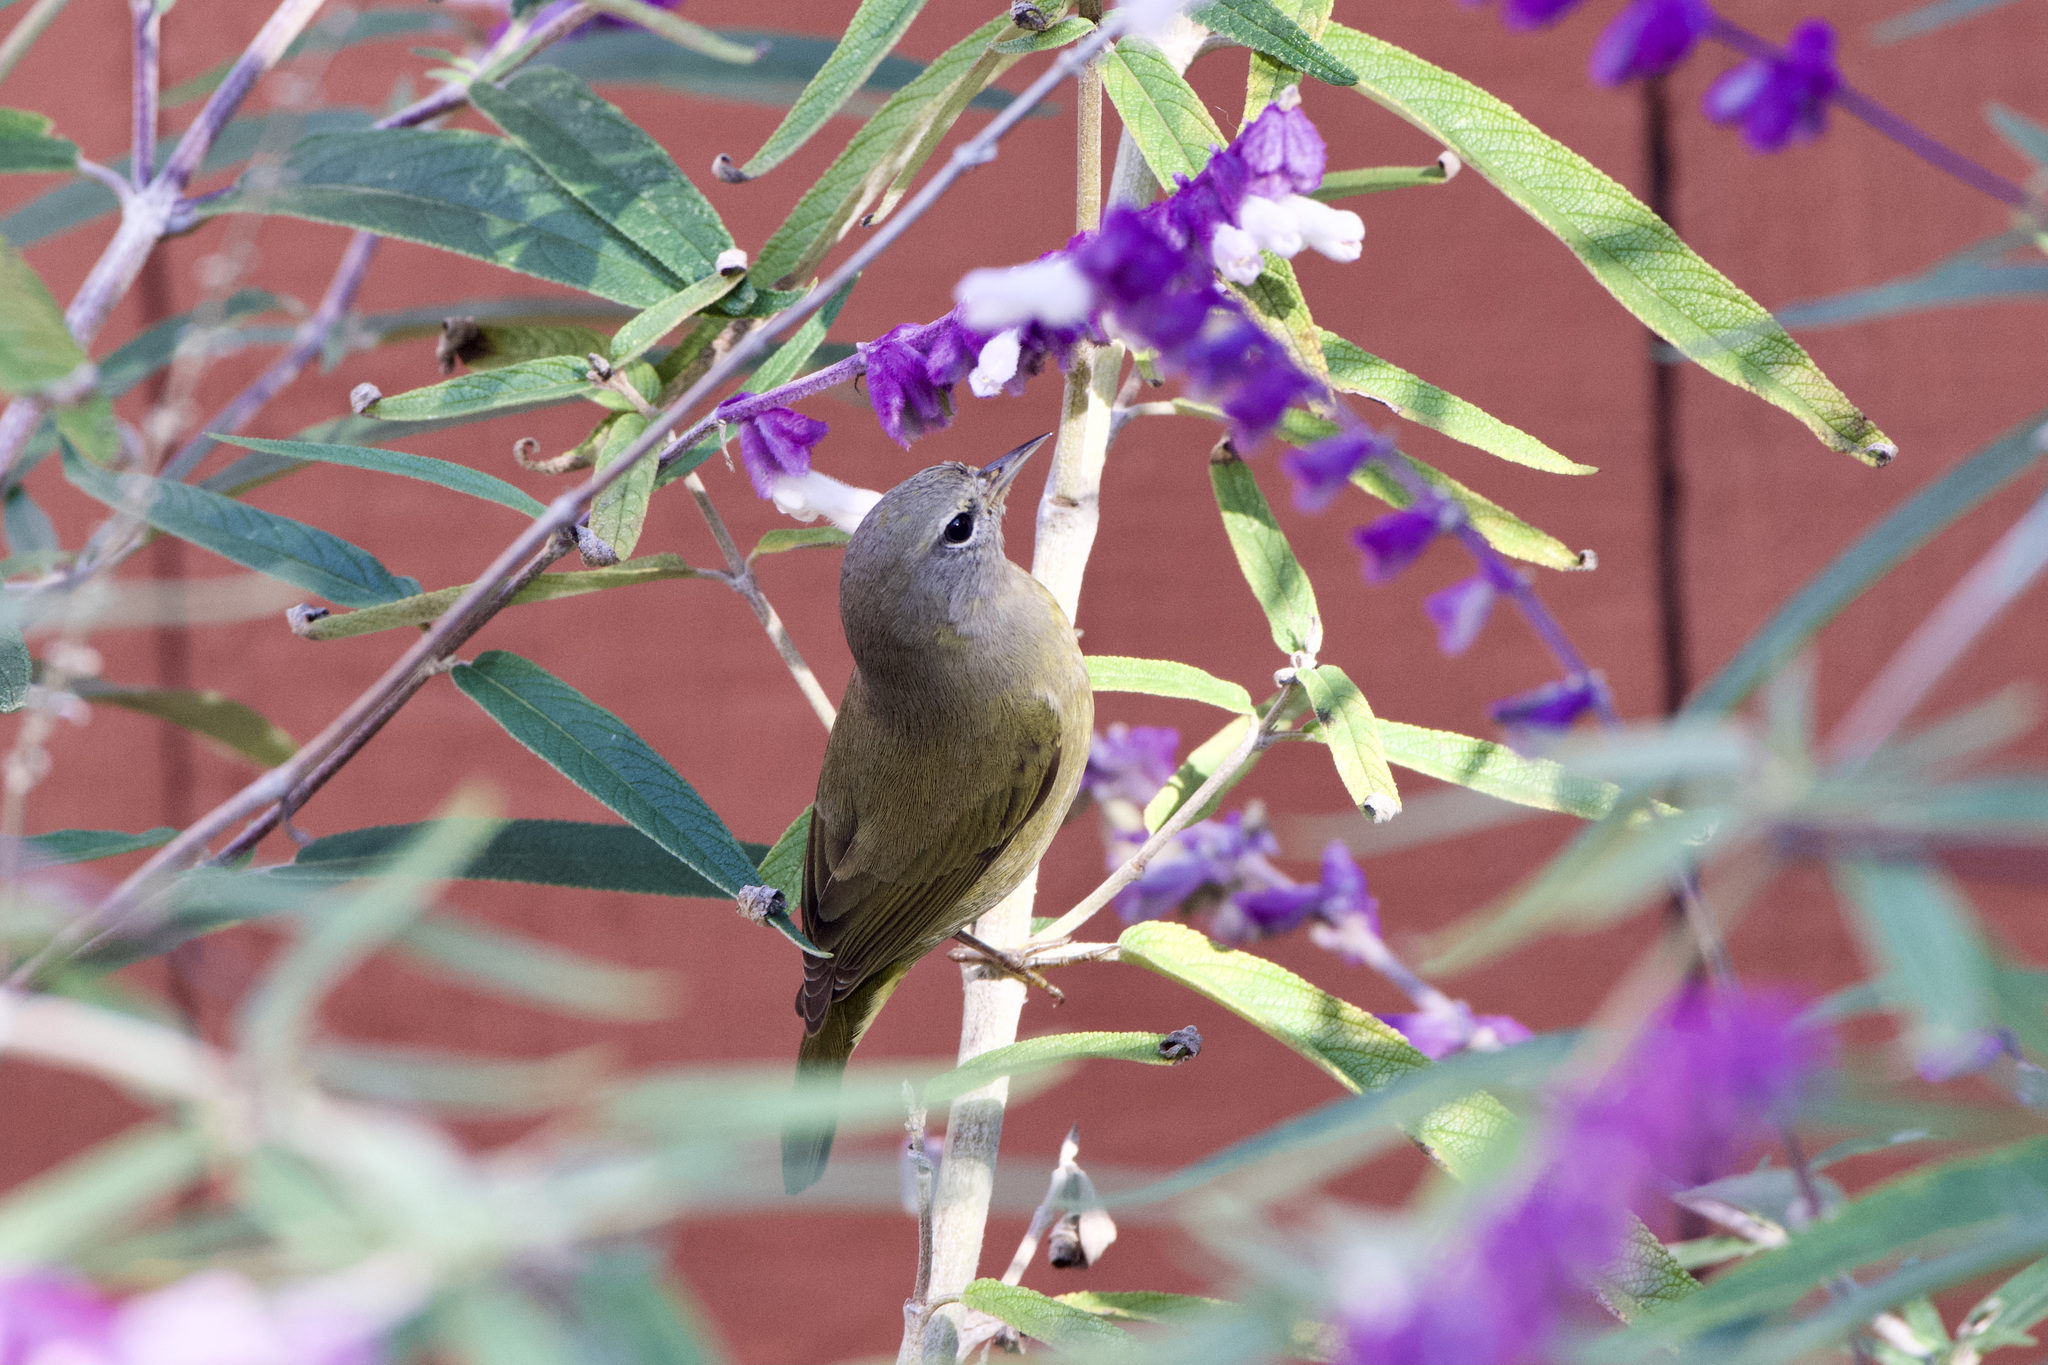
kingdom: Animalia
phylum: Chordata
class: Aves
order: Passeriformes
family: Parulidae
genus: Leiothlypis
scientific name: Leiothlypis celata
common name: Orange-crowned warbler
